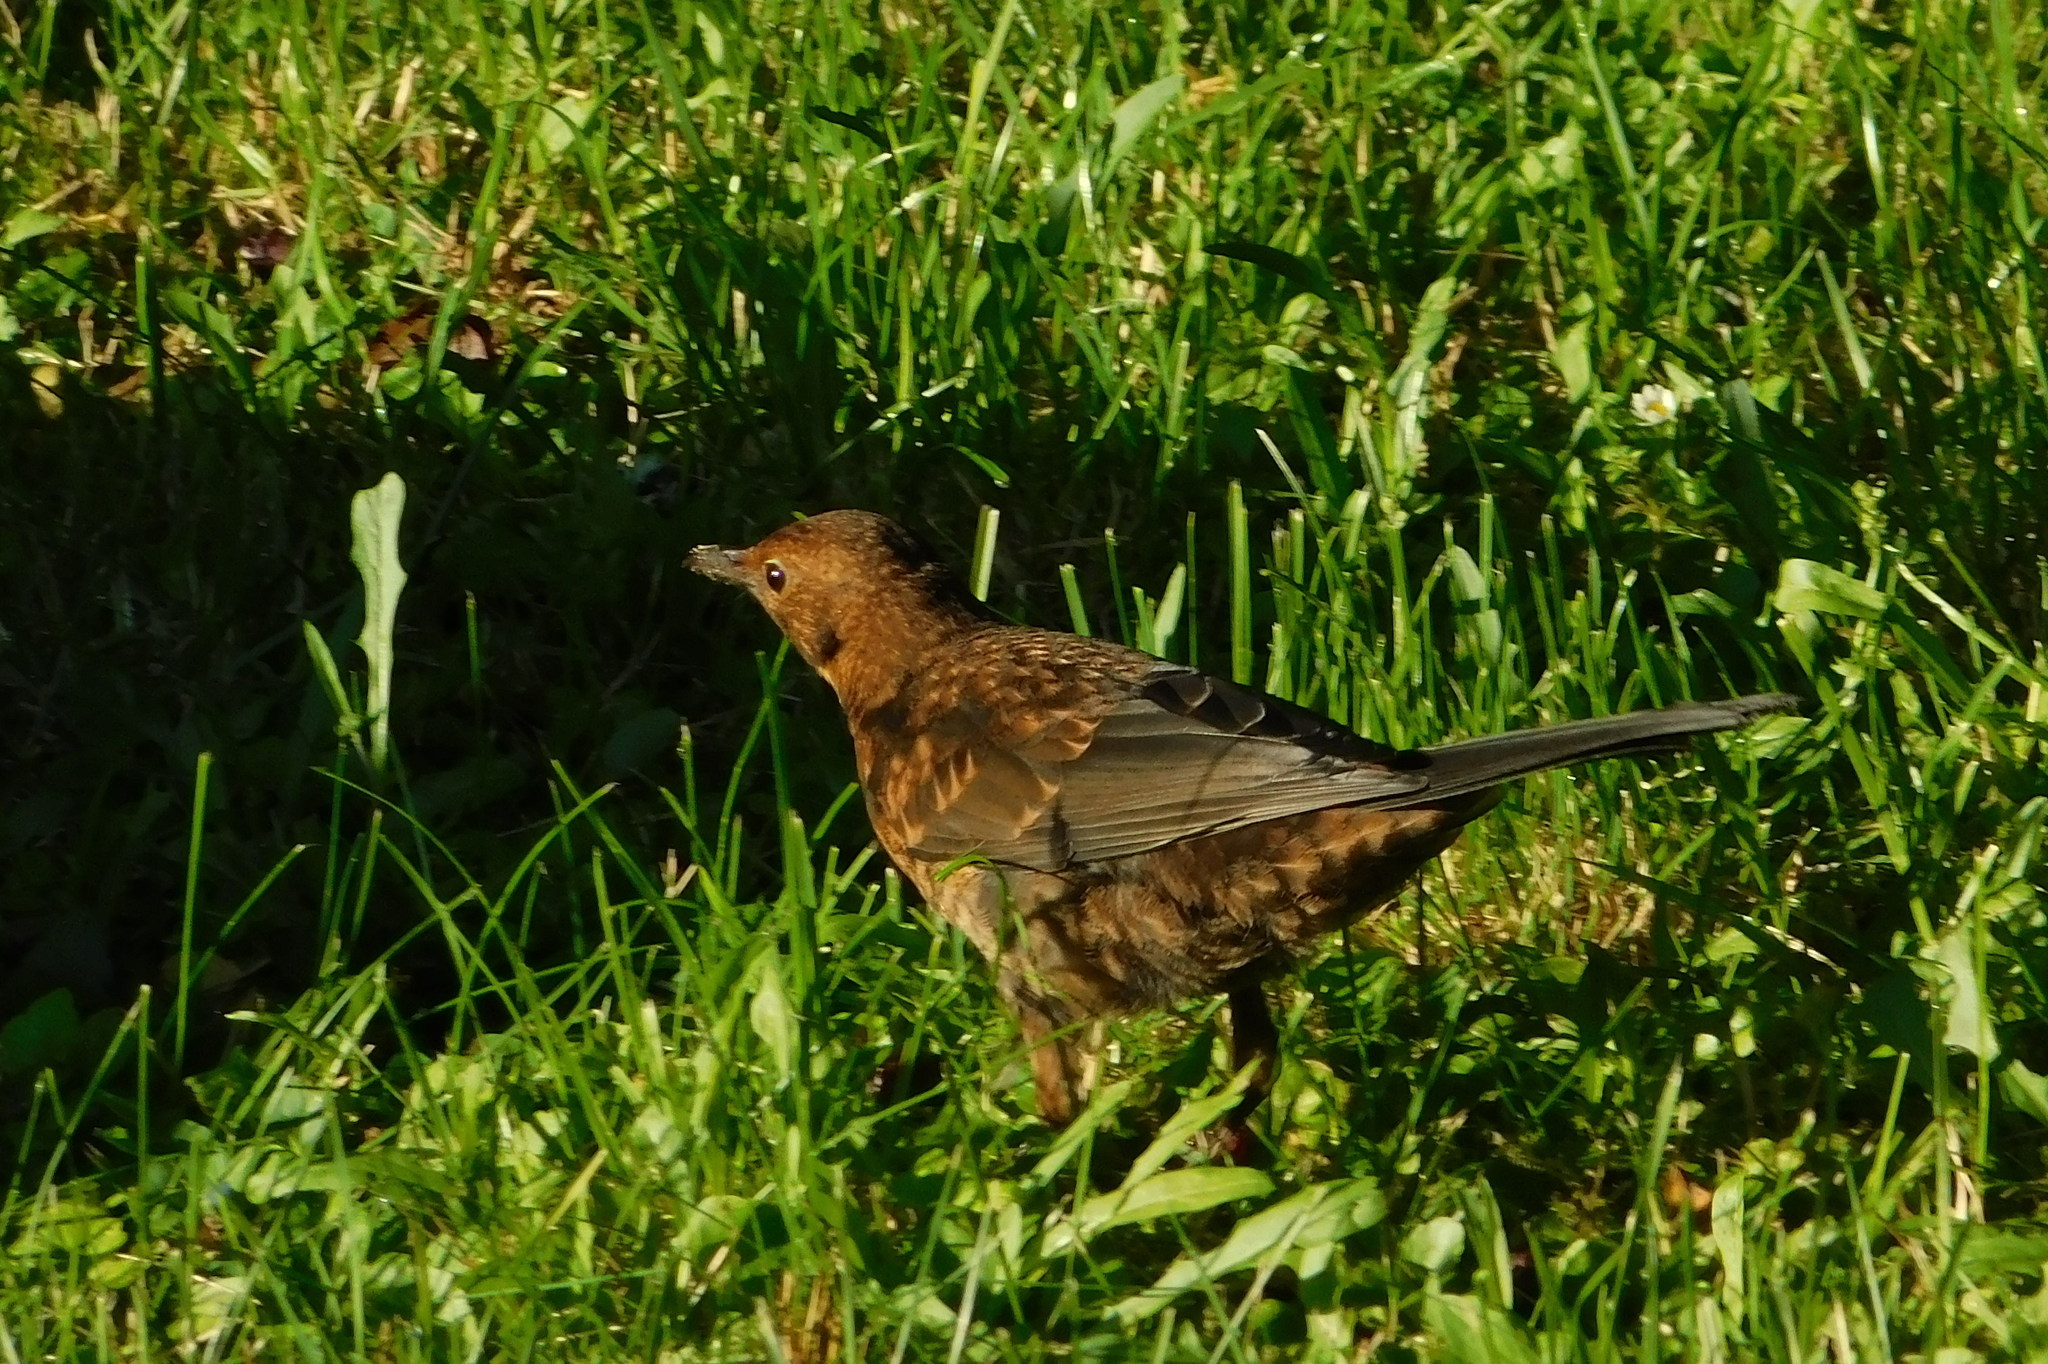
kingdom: Animalia
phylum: Chordata
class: Aves
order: Passeriformes
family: Turdidae
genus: Turdus
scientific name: Turdus merula
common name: Common blackbird
